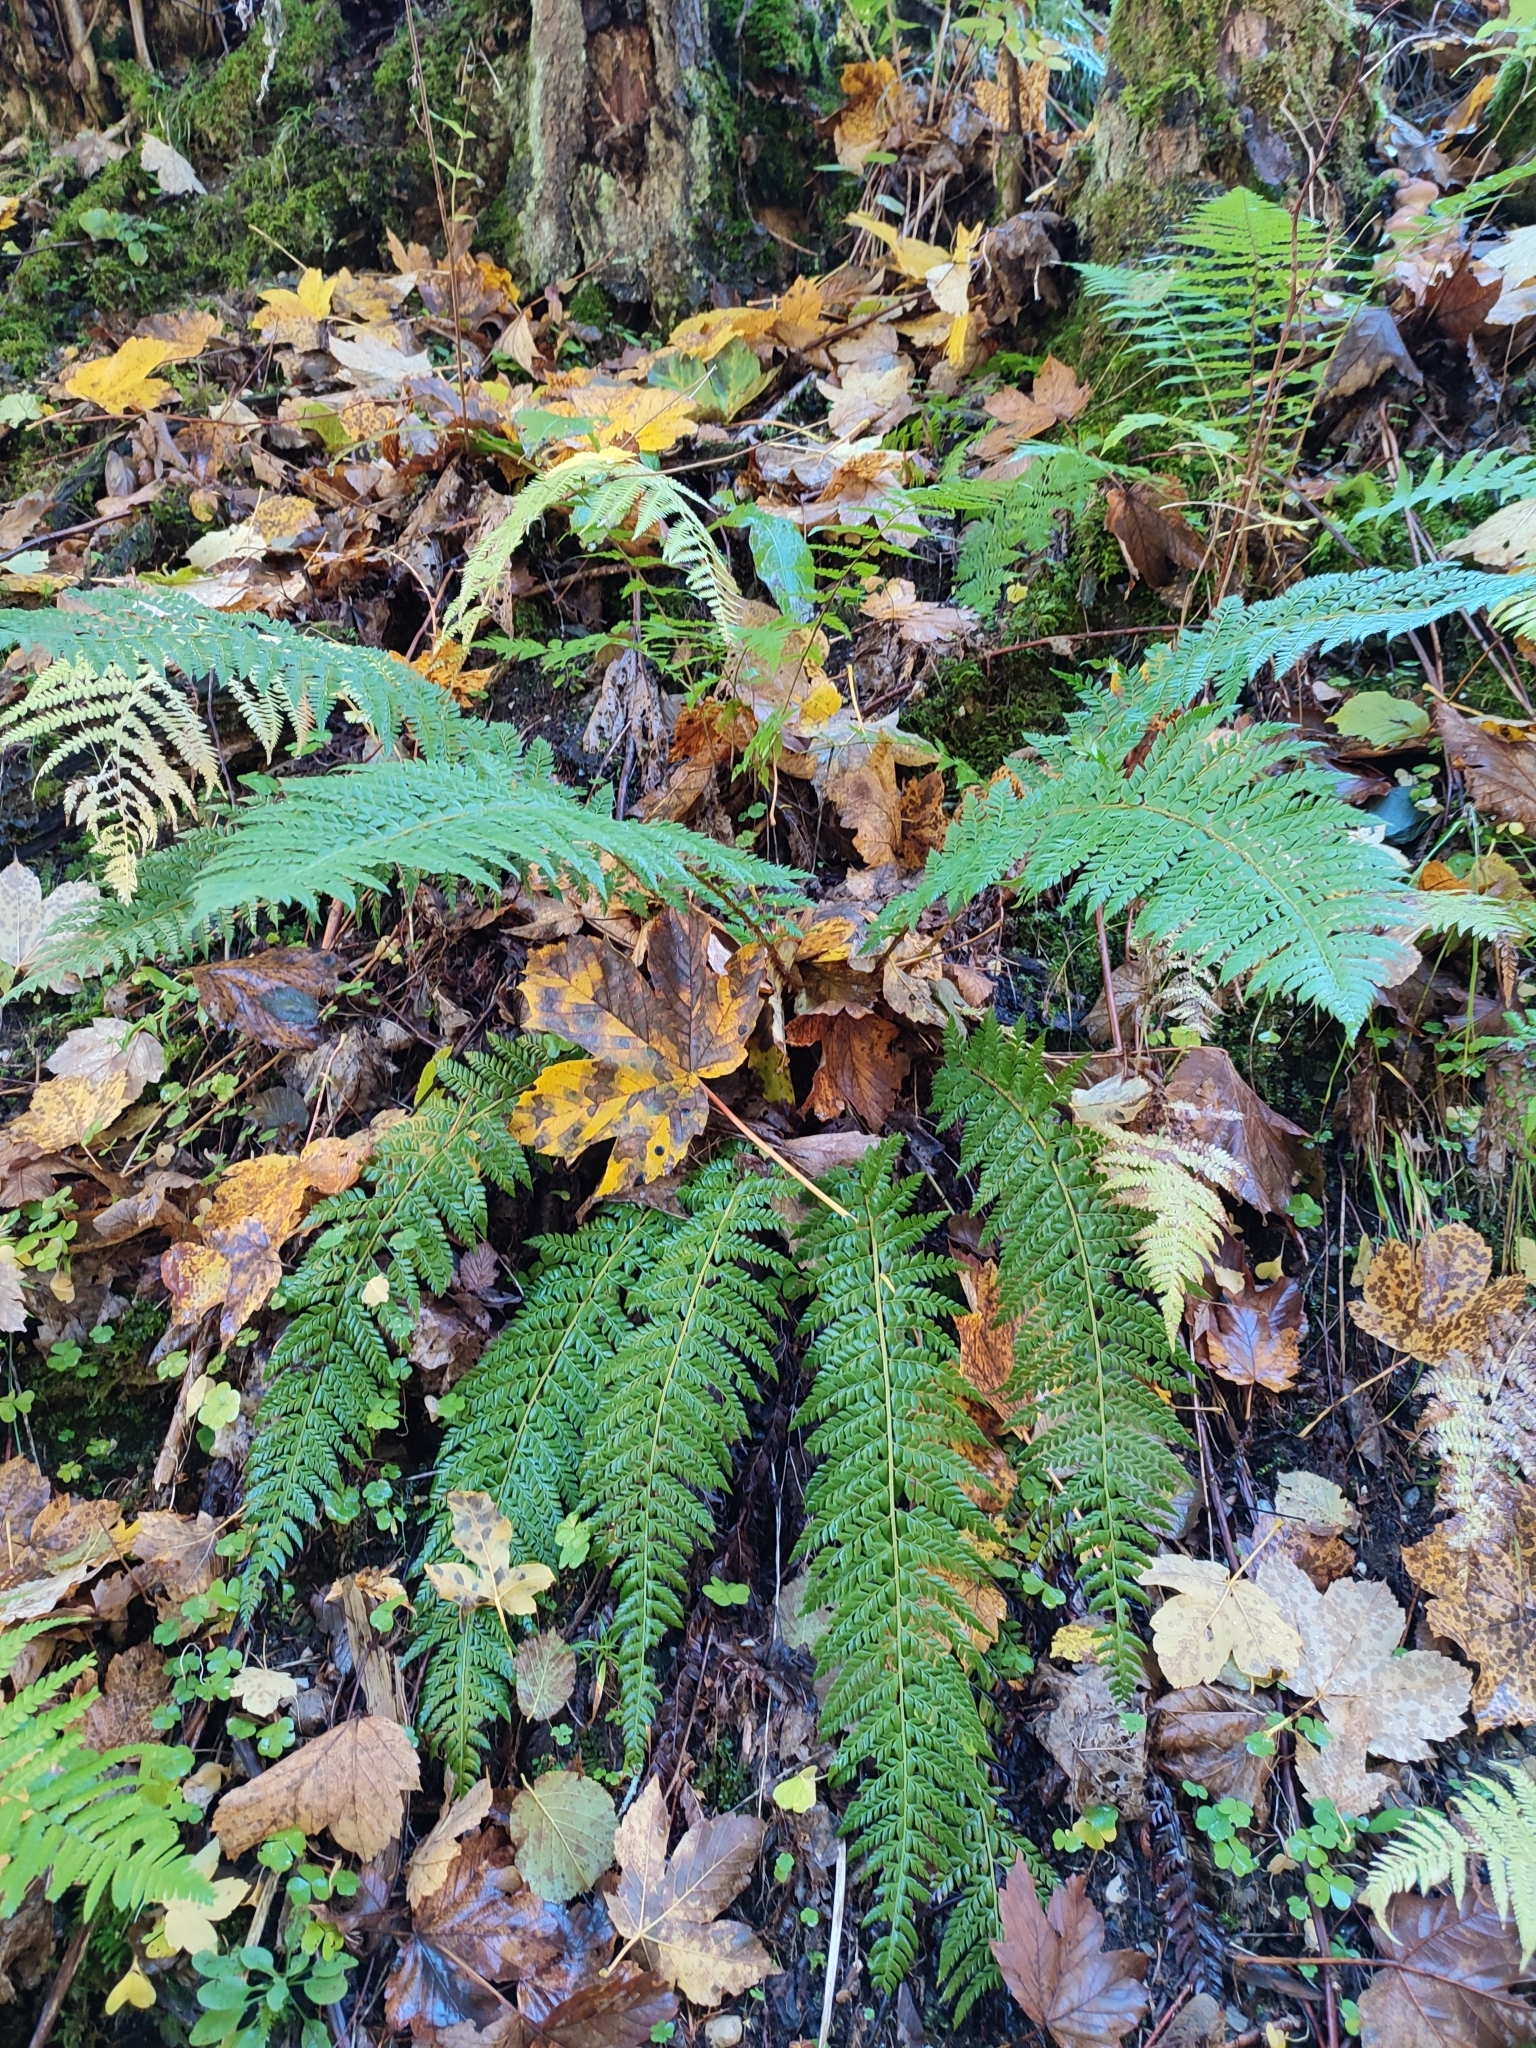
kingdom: Plantae
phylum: Tracheophyta
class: Polypodiopsida
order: Polypodiales
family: Dryopteridaceae
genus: Polystichum
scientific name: Polystichum aculeatum
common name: Hard shield-fern
